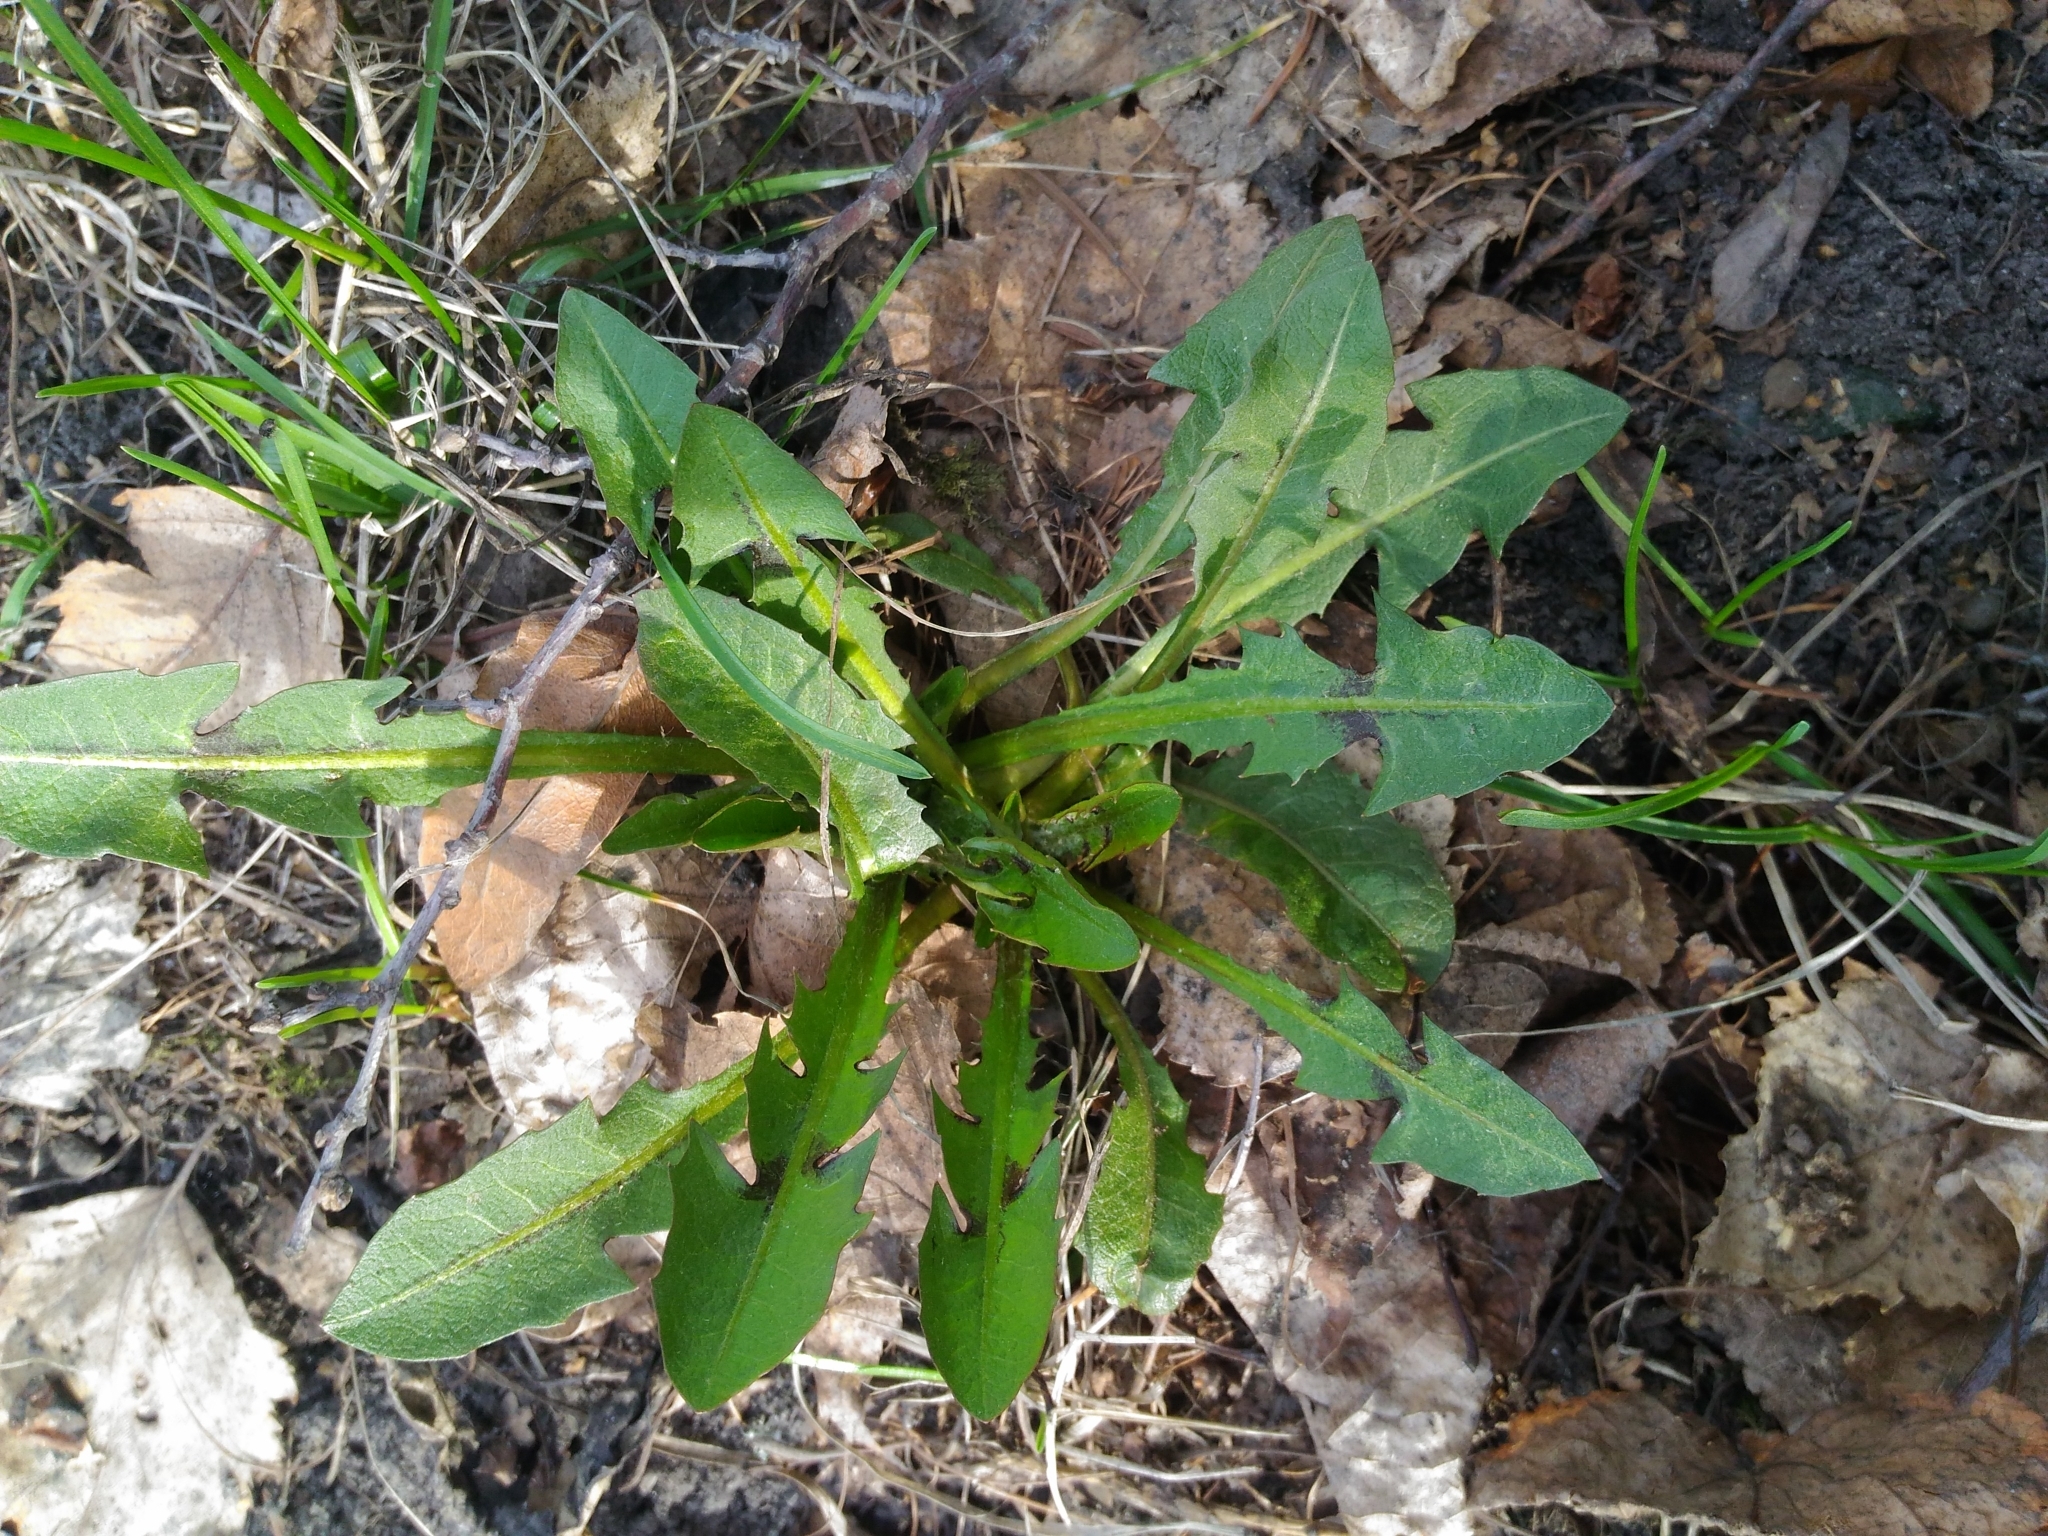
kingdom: Plantae
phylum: Tracheophyta
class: Magnoliopsida
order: Asterales
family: Asteraceae
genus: Taraxacum
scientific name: Taraxacum officinale
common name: Common dandelion
